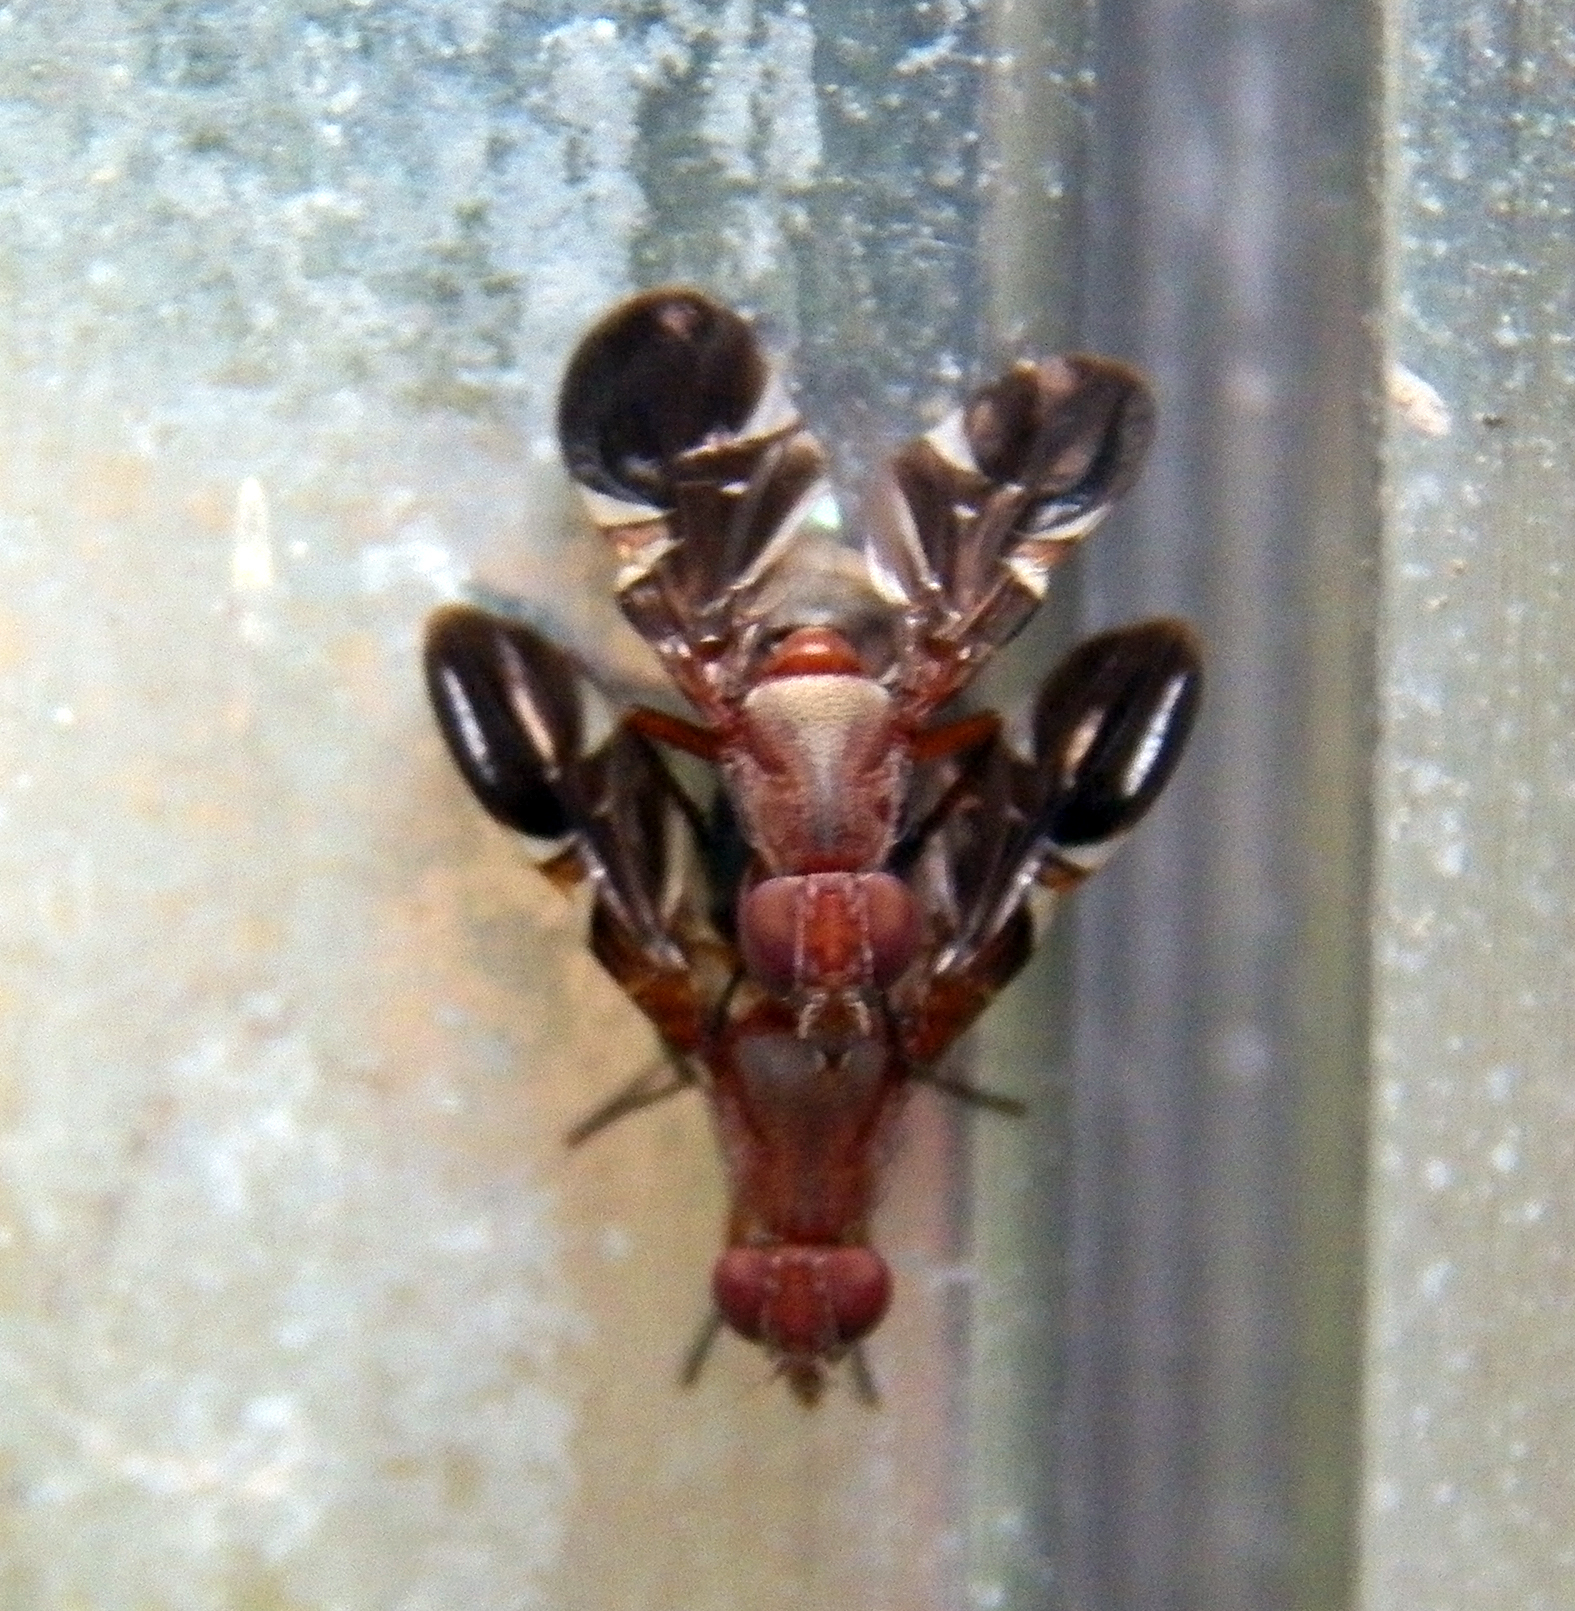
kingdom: Animalia
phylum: Arthropoda
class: Insecta
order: Diptera
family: Ulidiidae
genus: Delphinia
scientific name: Delphinia picta
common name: Common picture-winged fly
